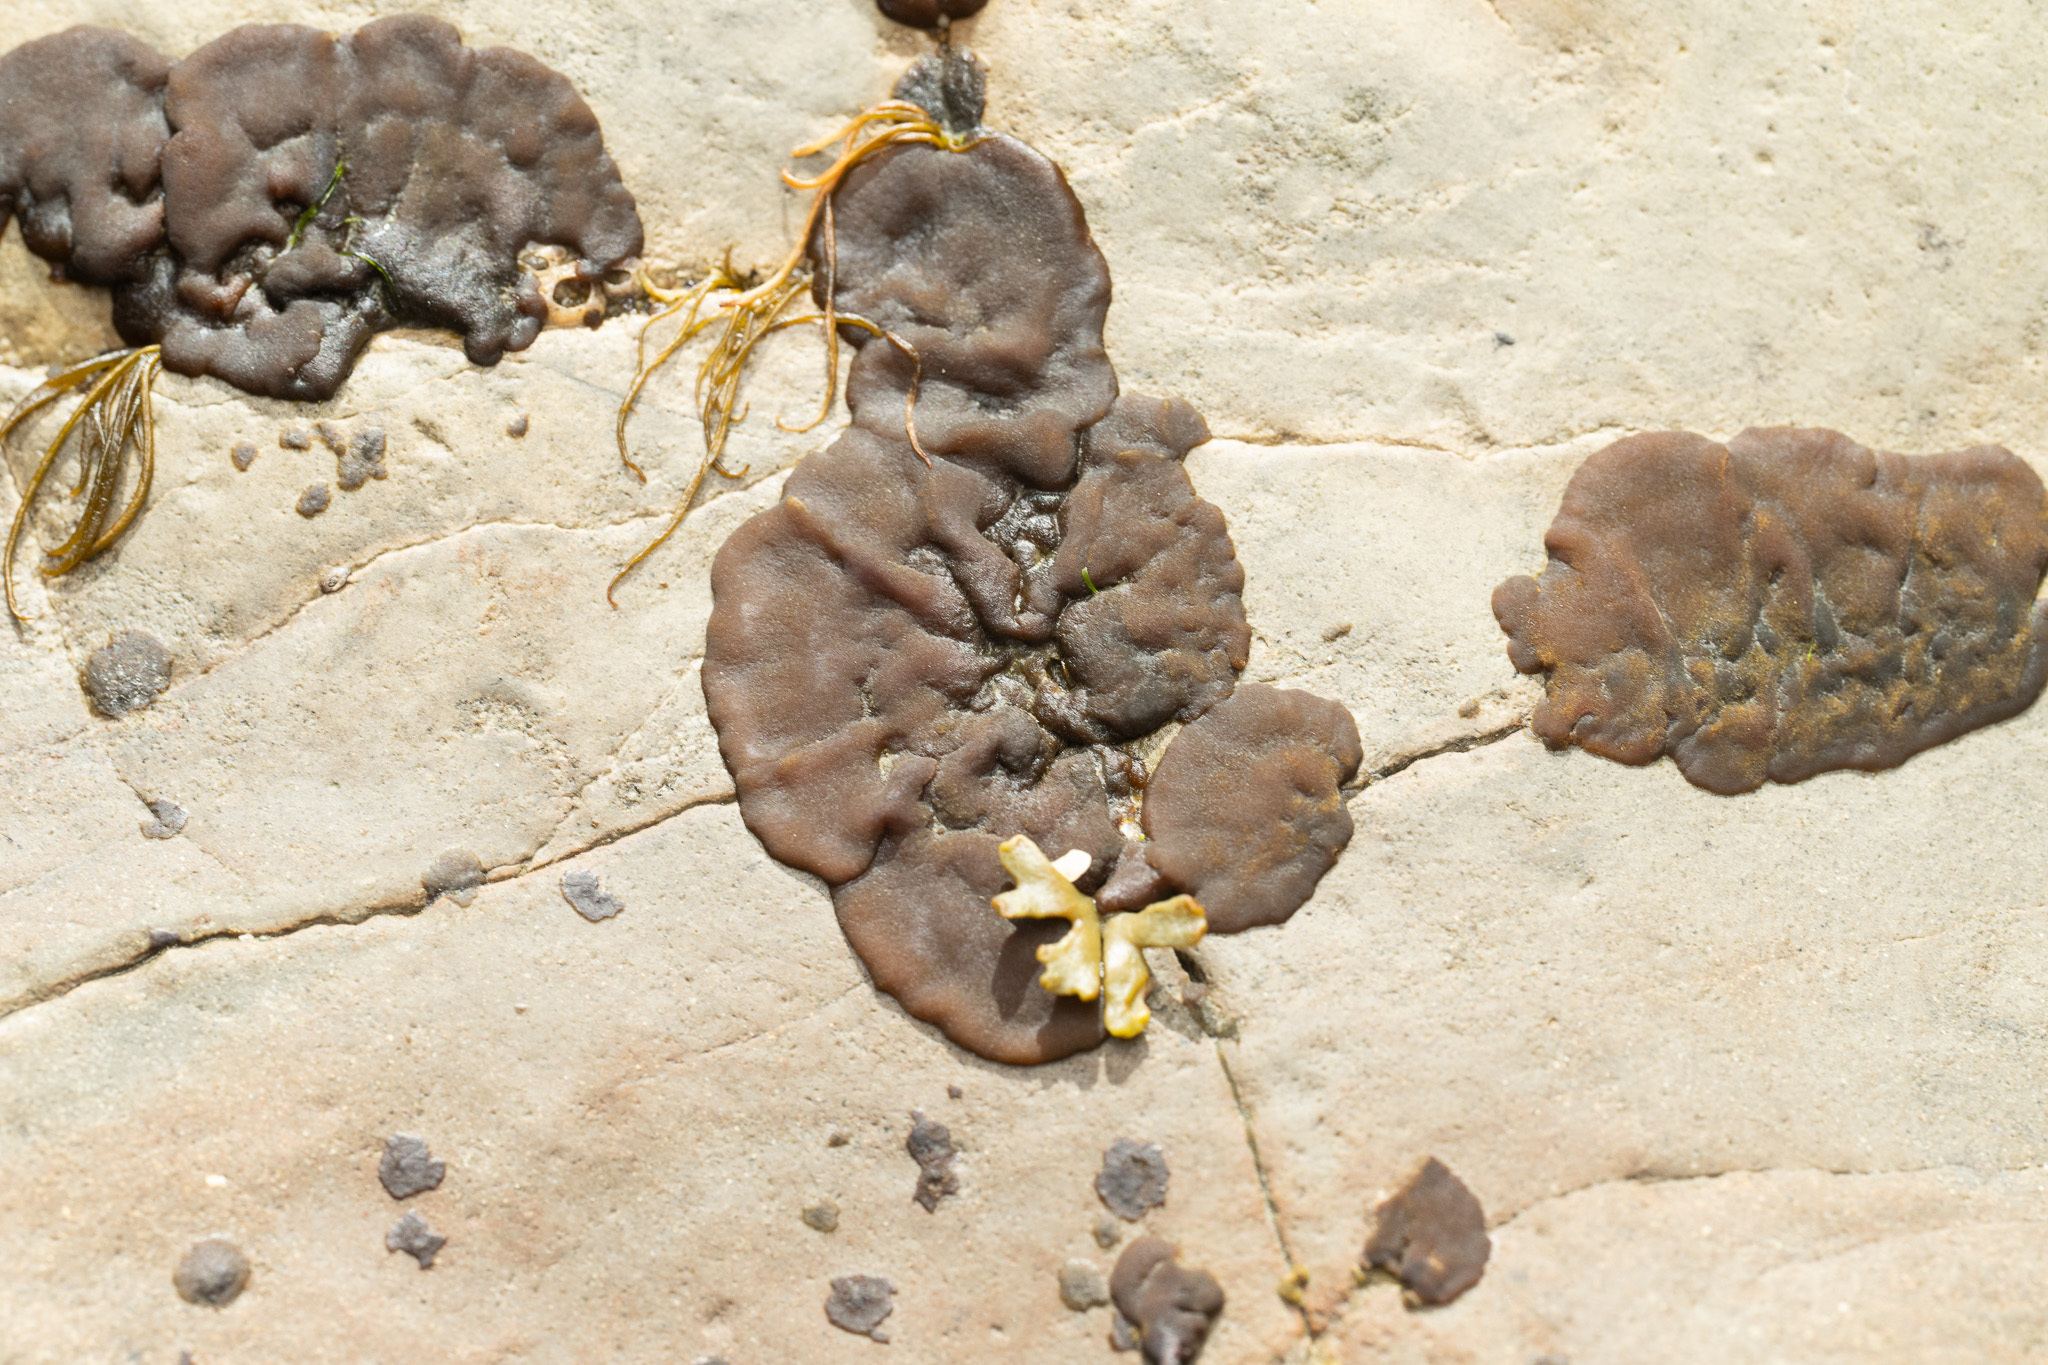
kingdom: Chromista
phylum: Ochrophyta
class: Phaeophyceae
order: Ectocarpales
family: Petrospongiaceae
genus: Petrospongium
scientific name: Petrospongium rugosum
